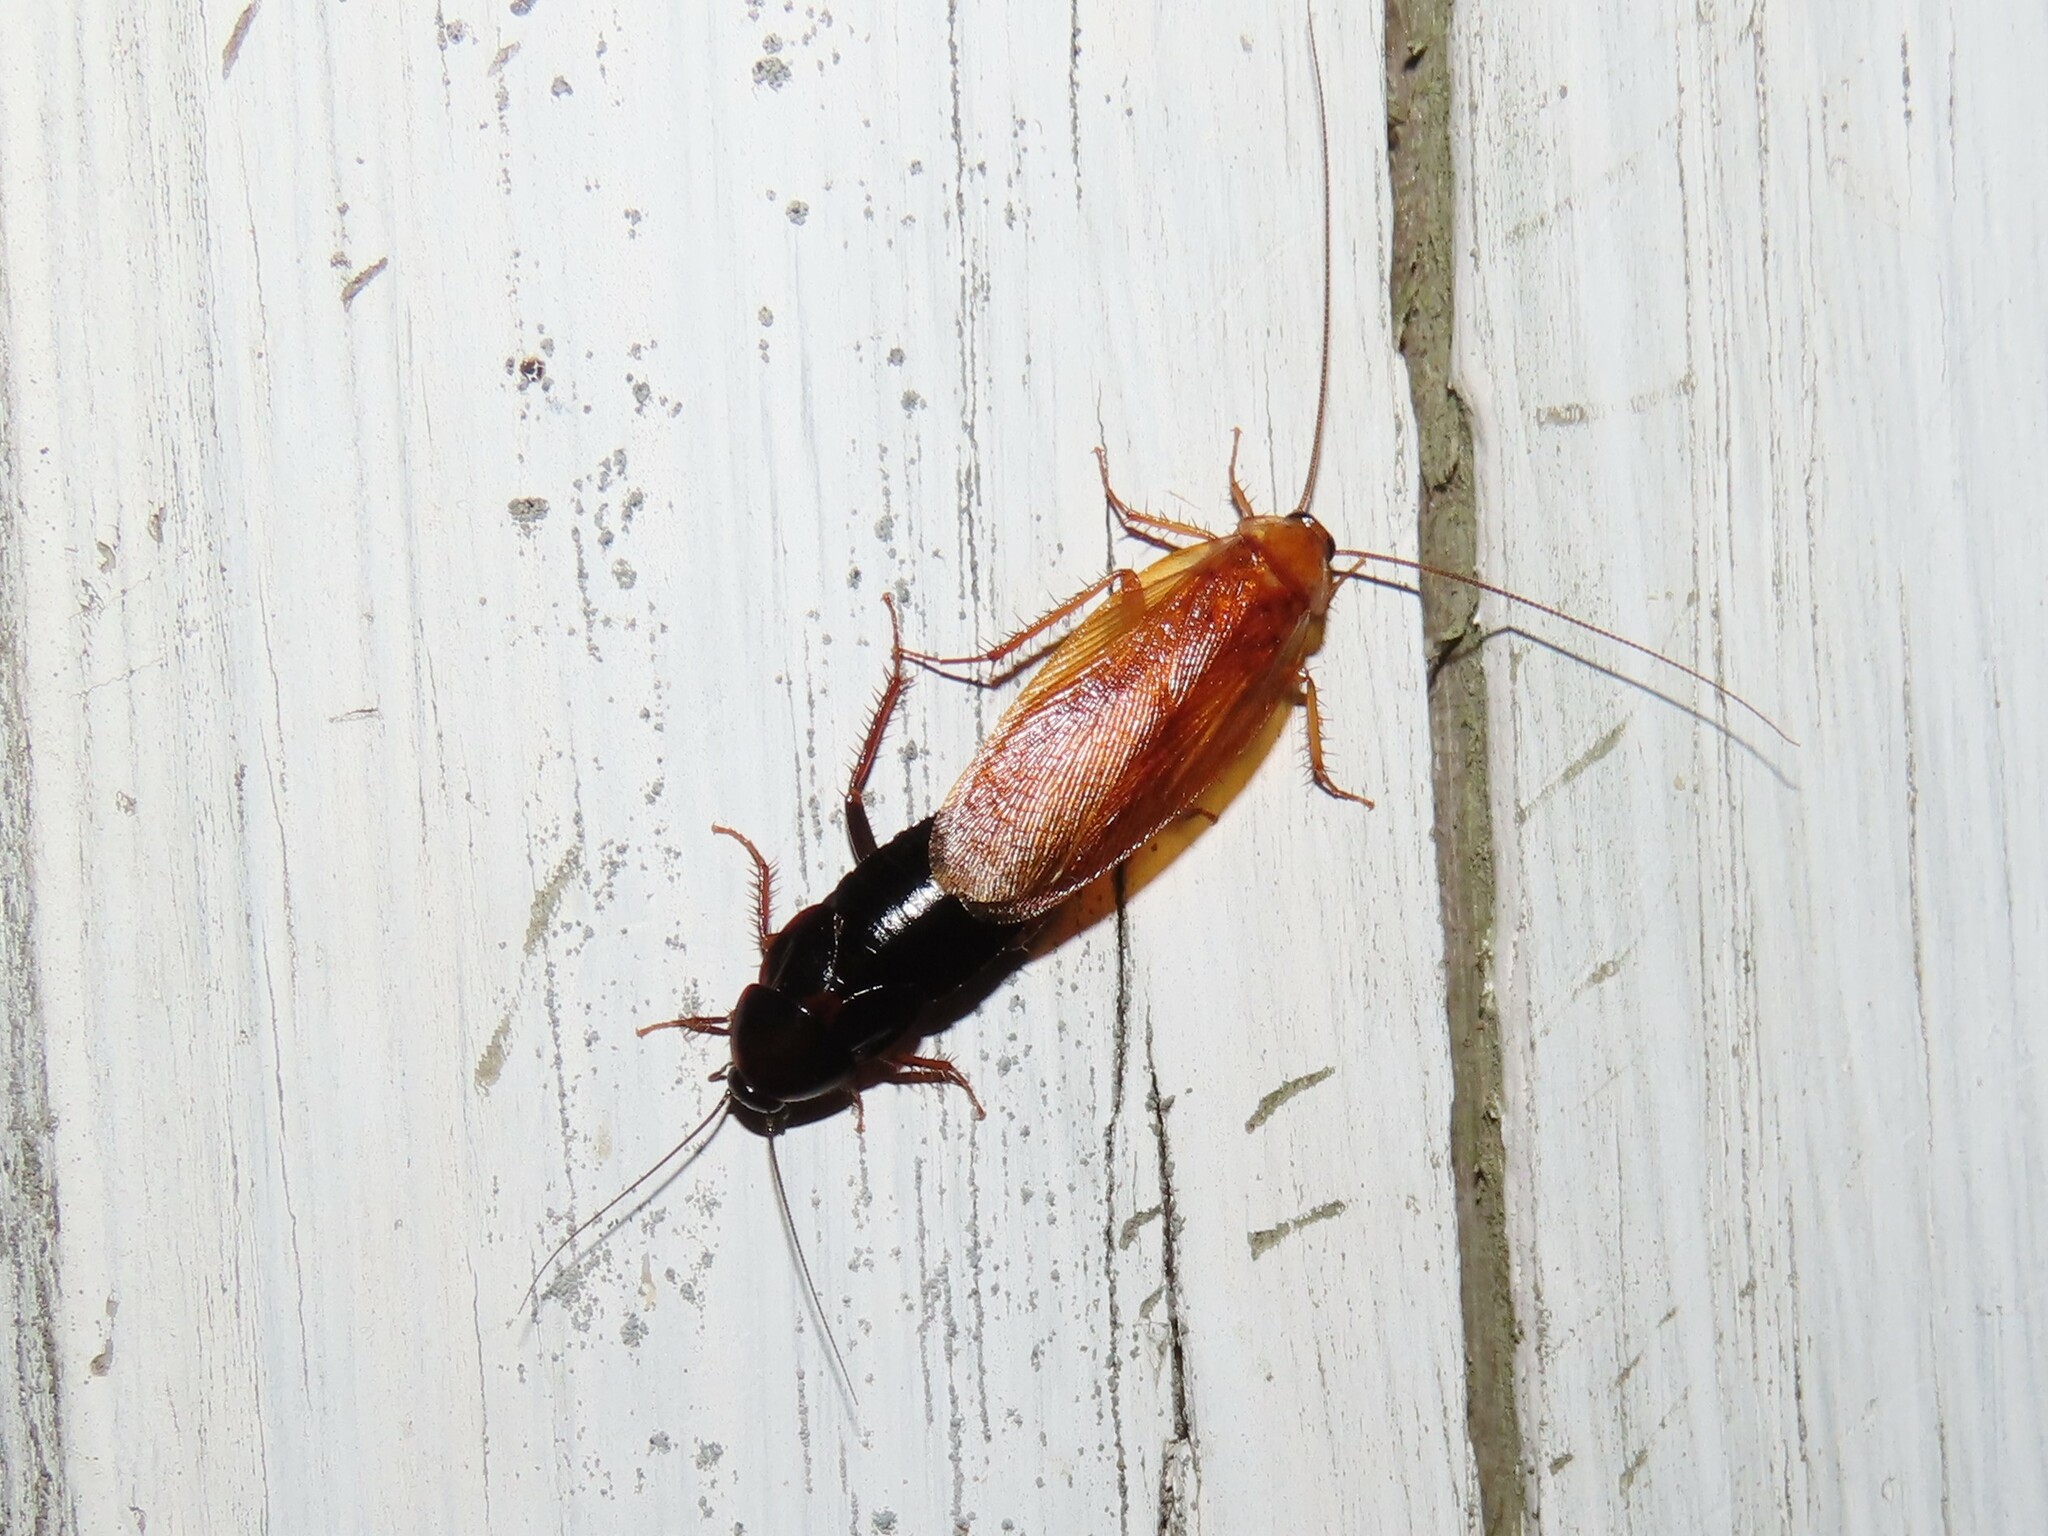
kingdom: Animalia
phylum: Arthropoda
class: Insecta
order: Blattodea
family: Ectobiidae
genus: Parcoblatta
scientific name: Parcoblatta uhleriana
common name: Uhler's wood cockroach
